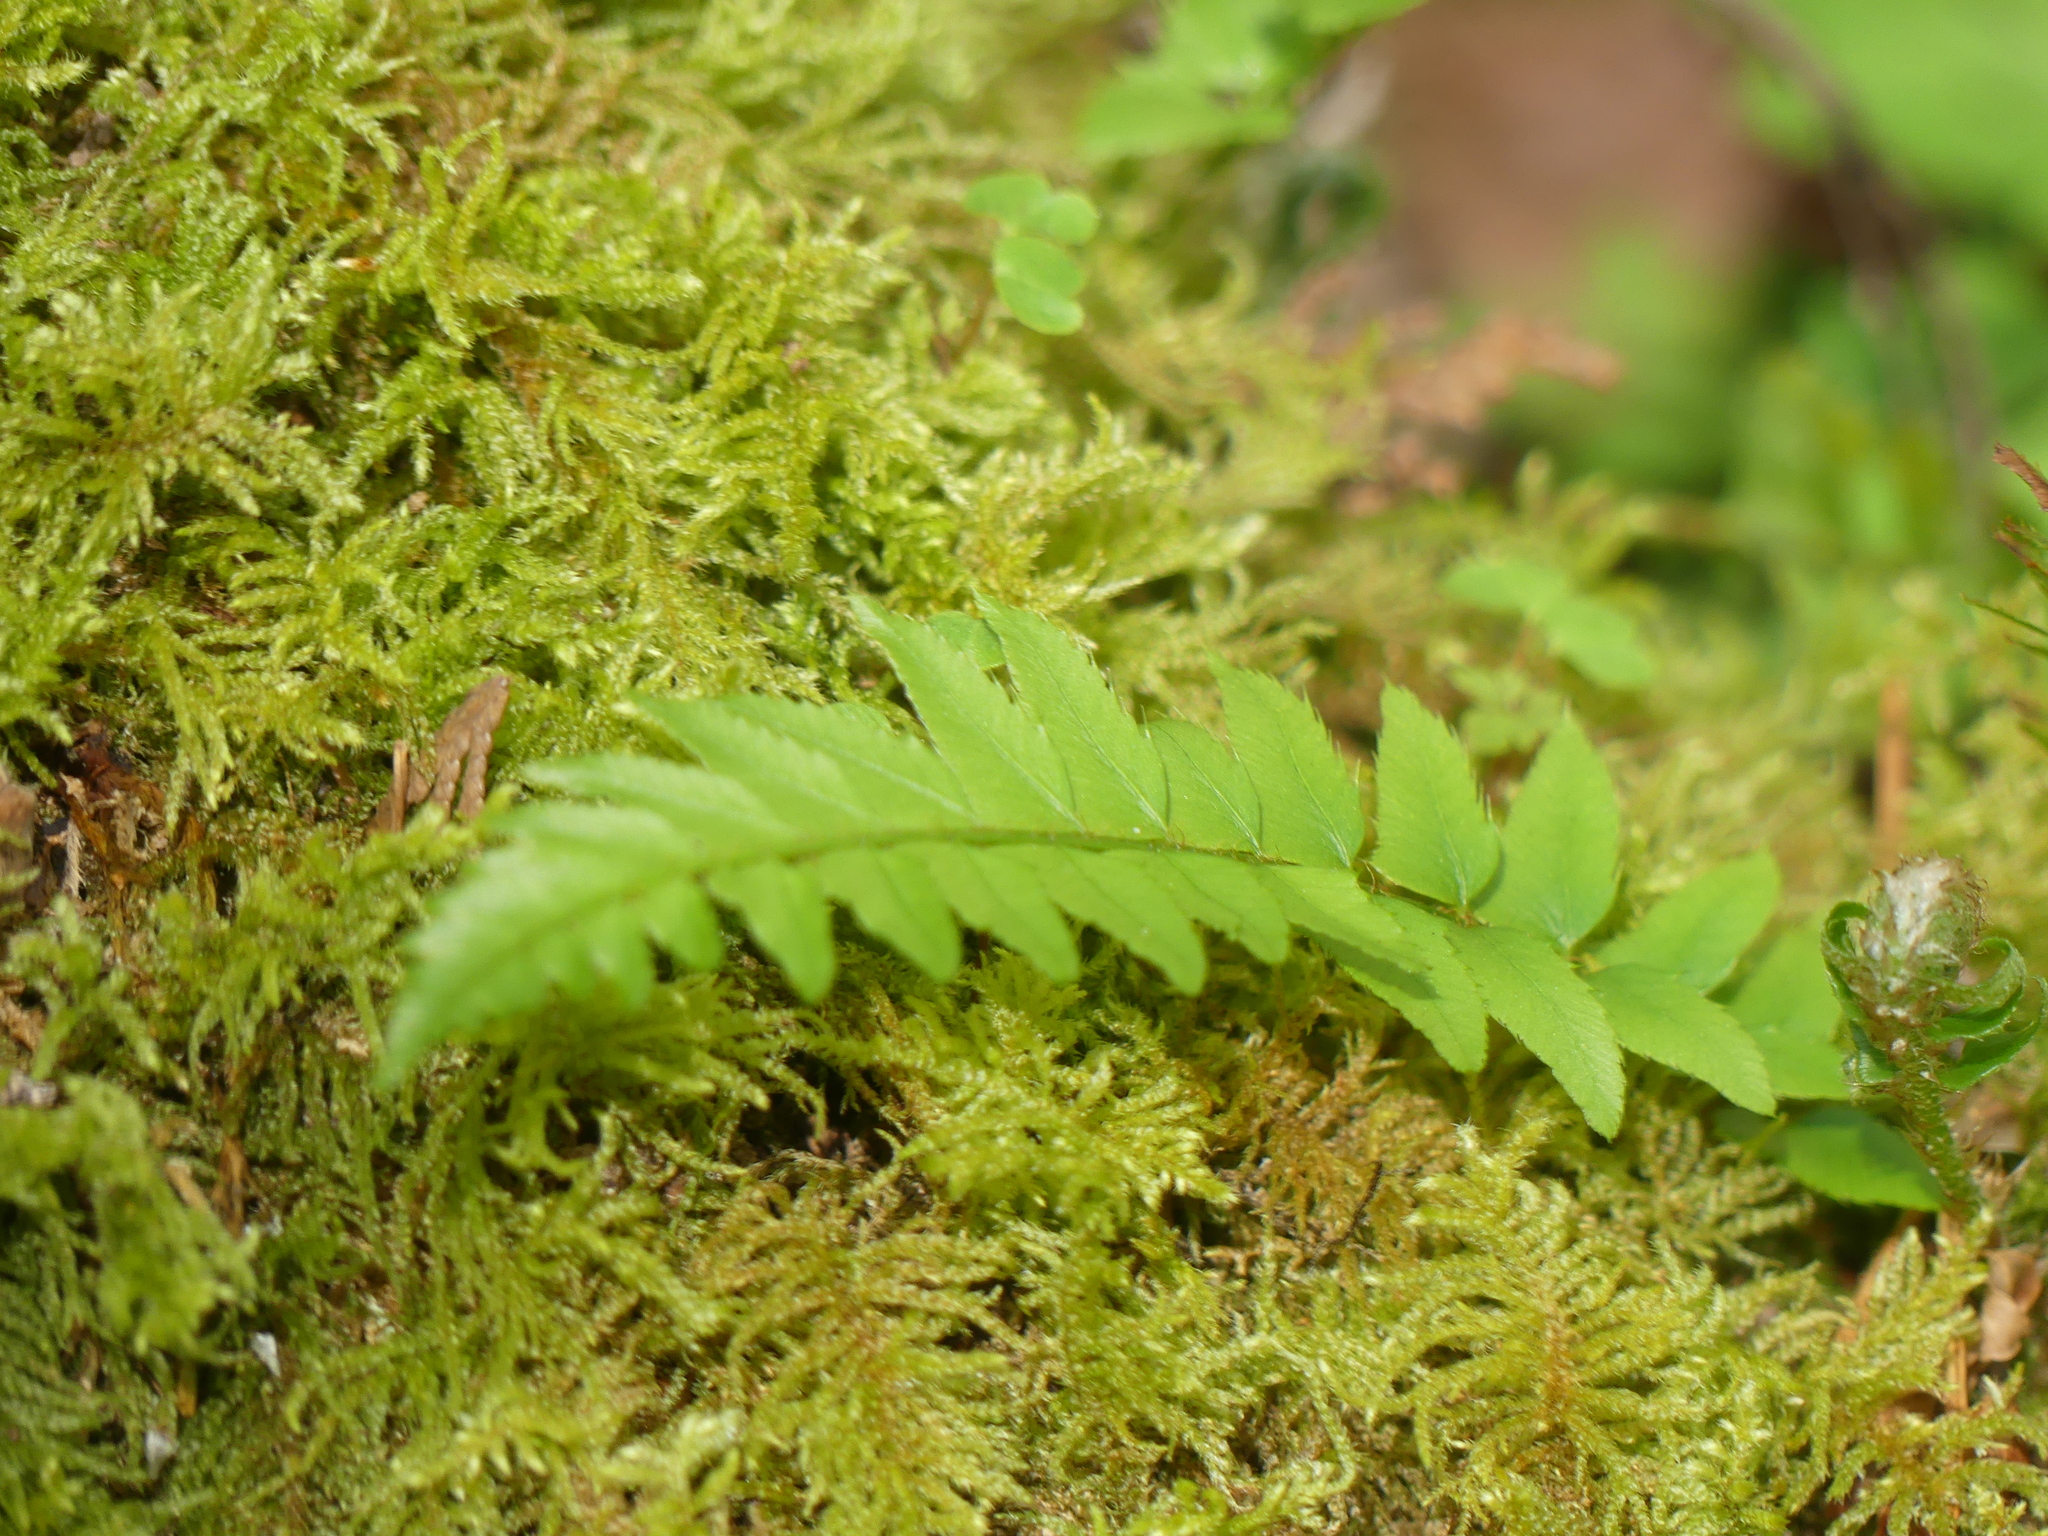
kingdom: Plantae
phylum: Tracheophyta
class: Polypodiopsida
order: Polypodiales
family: Dryopteridaceae
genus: Polystichum
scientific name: Polystichum munitum
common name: Western sword-fern
